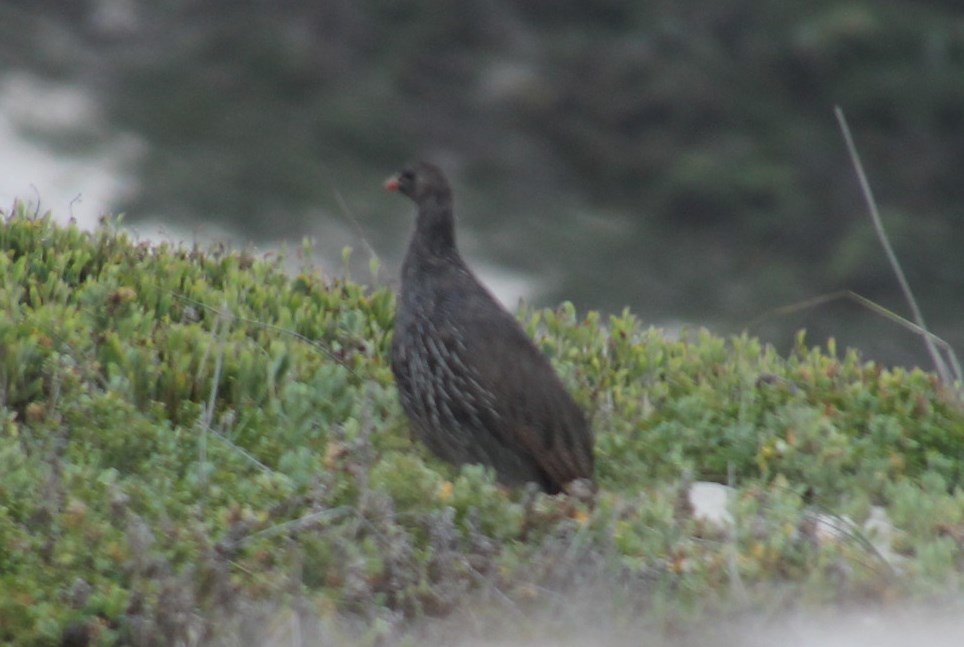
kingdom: Animalia
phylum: Chordata
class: Aves
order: Galliformes
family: Phasianidae
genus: Pternistis
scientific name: Pternistis capensis
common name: Cape spurfowl
